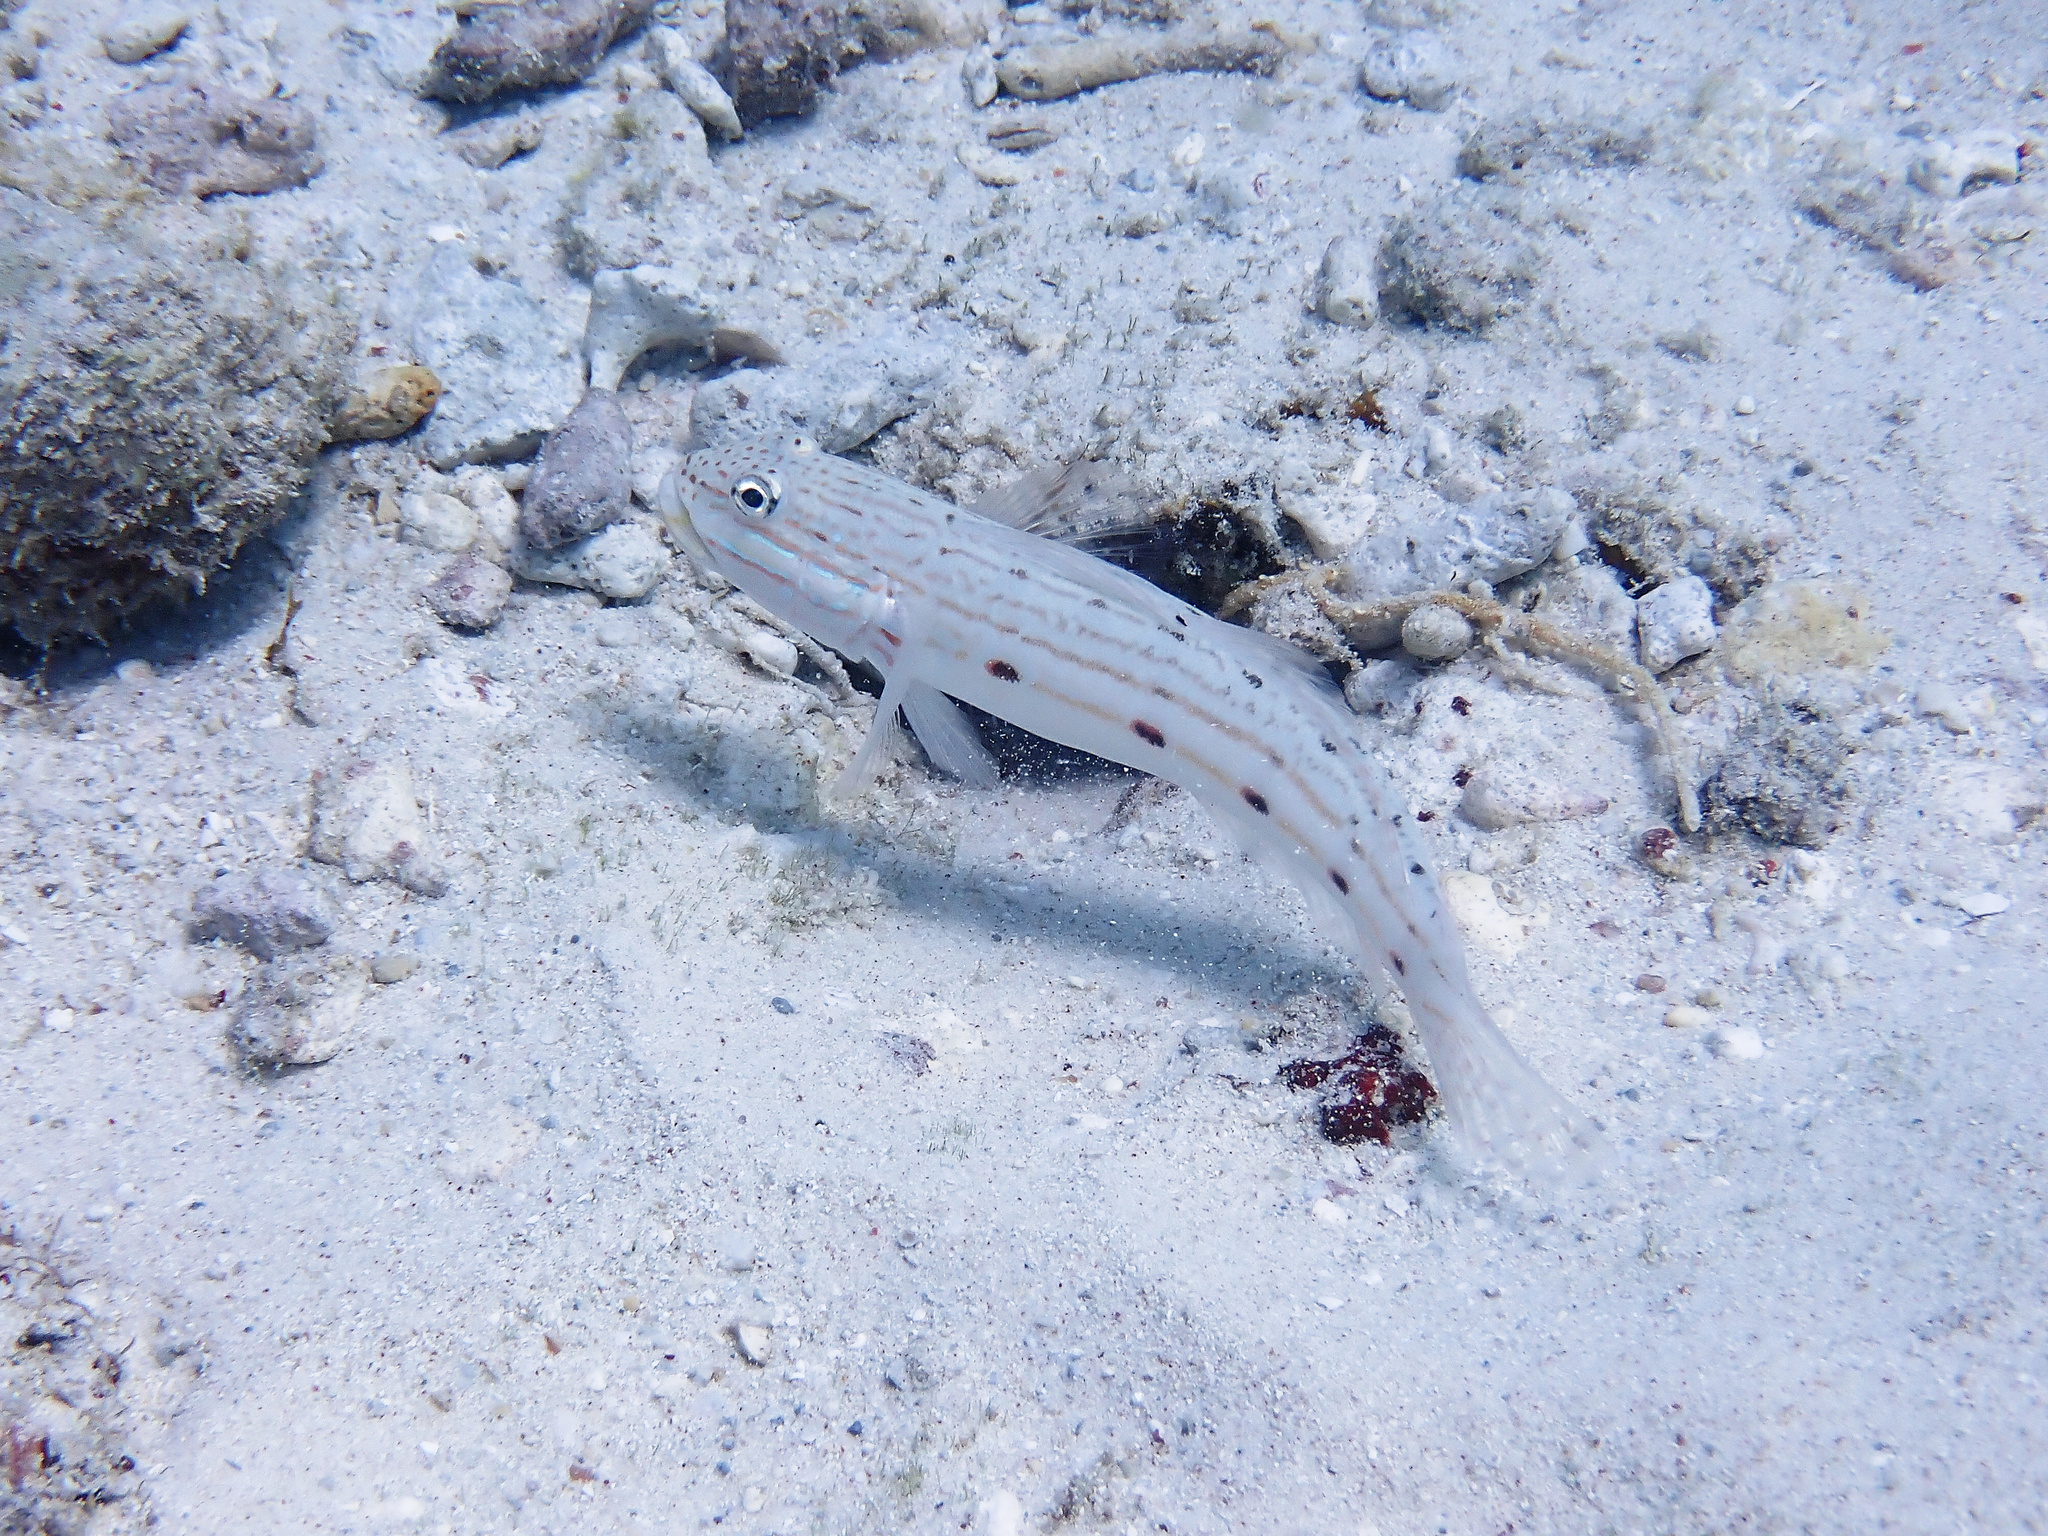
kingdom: Animalia
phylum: Chordata
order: Perciformes
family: Gobiidae
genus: Valenciennea
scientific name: Valenciennea longipinnis
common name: Longfinned goby
